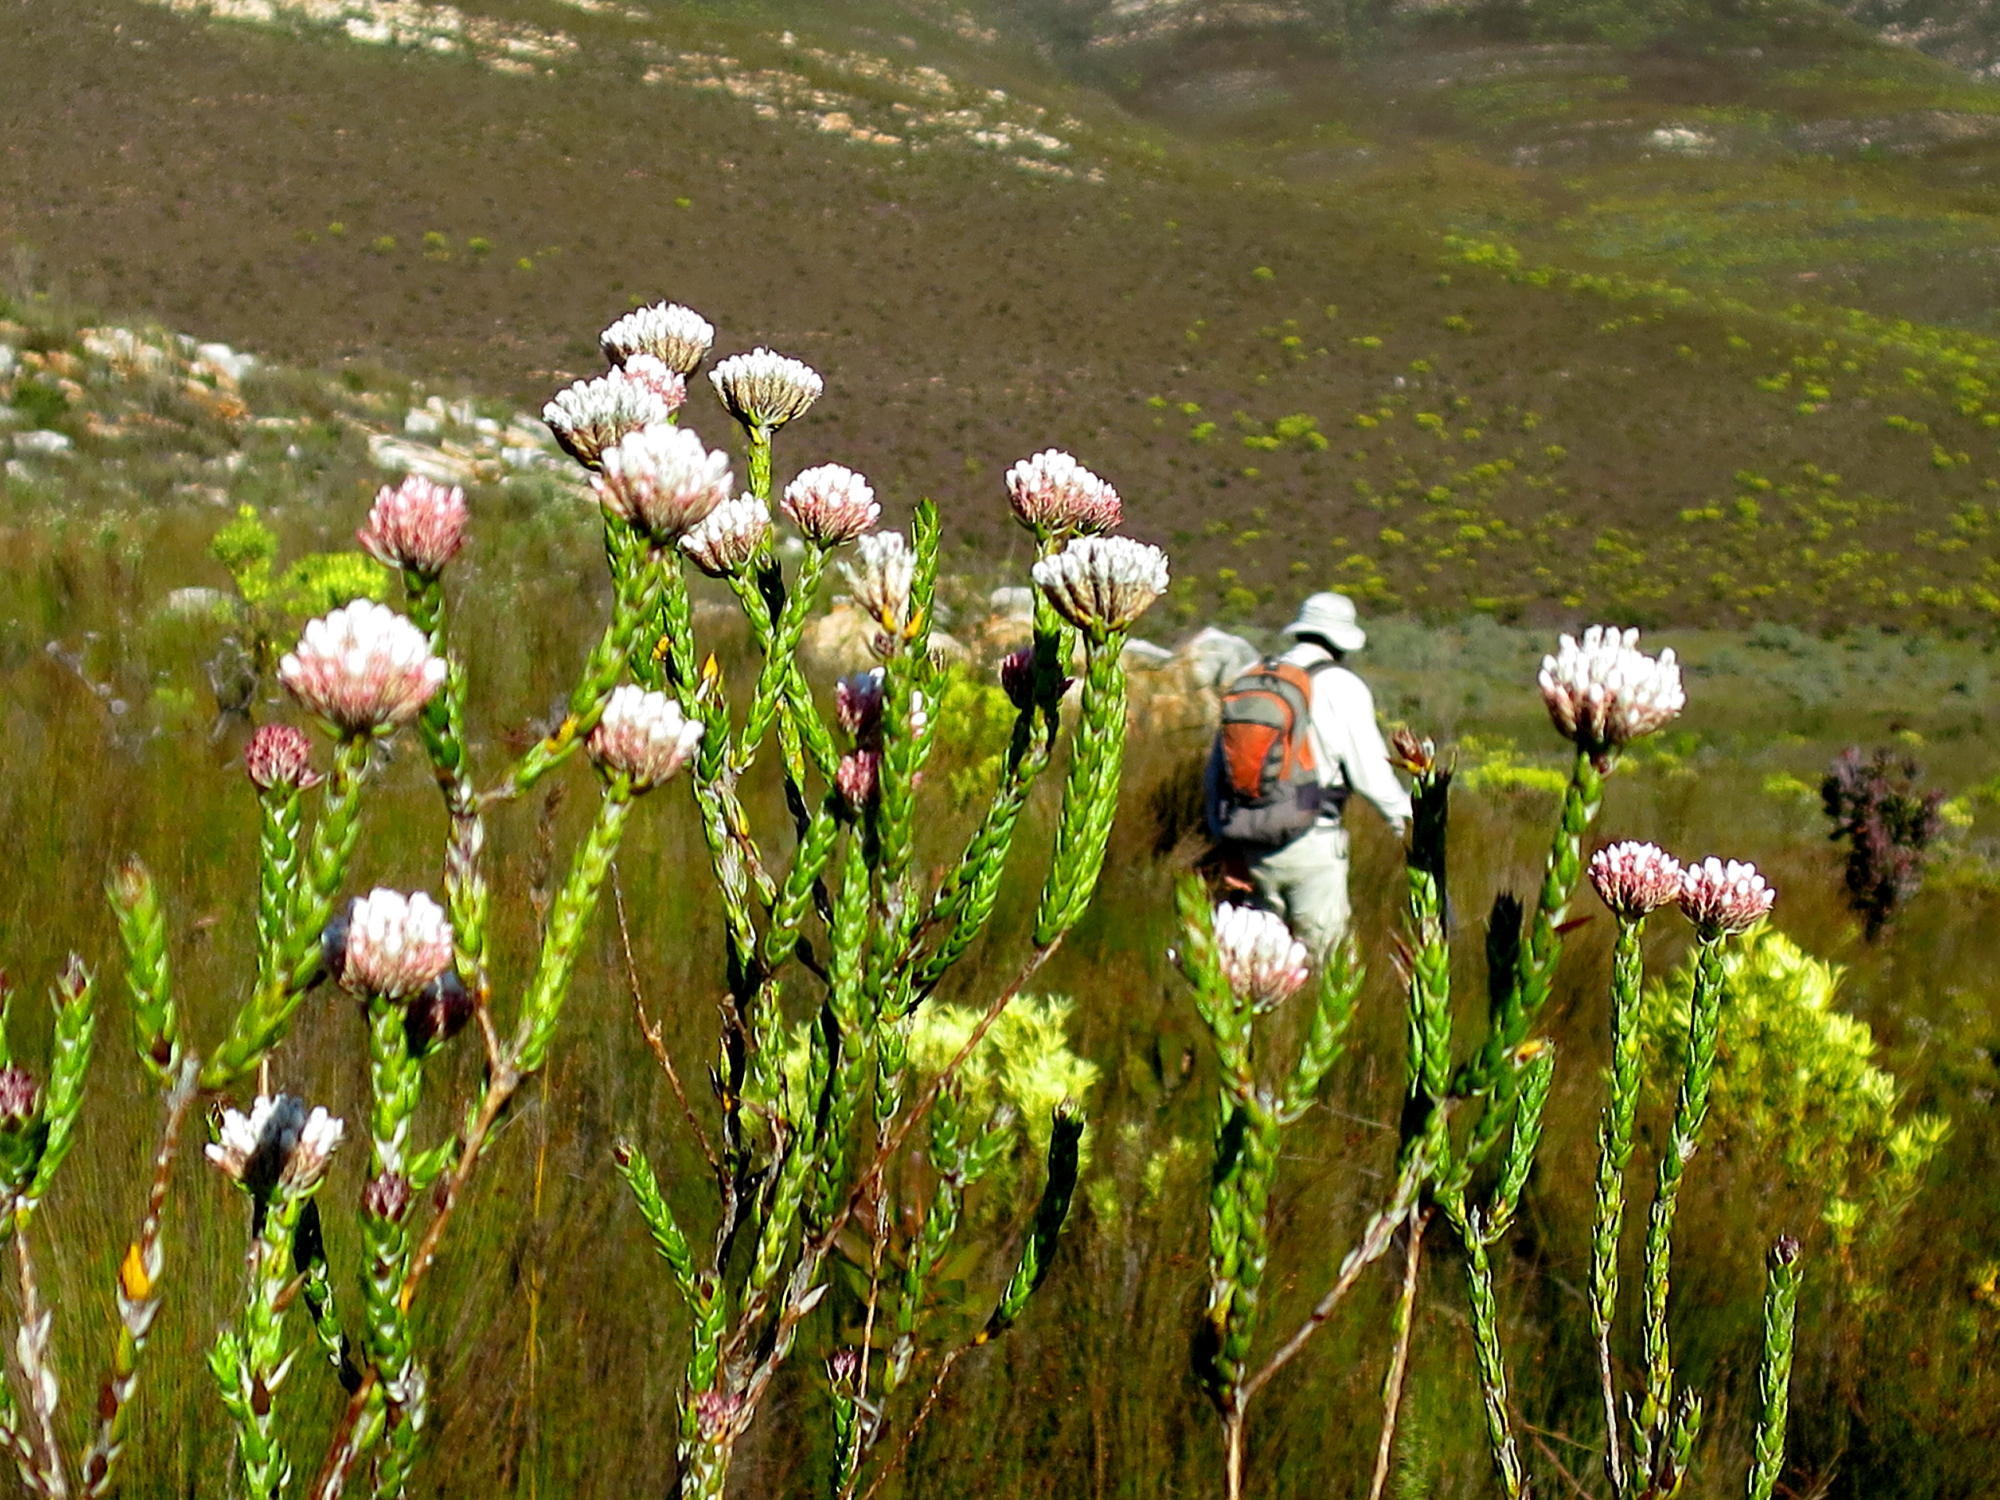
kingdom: Plantae
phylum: Tracheophyta
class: Magnoliopsida
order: Asterales
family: Asteraceae
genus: Metalasia
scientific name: Metalasia pulcherrima
